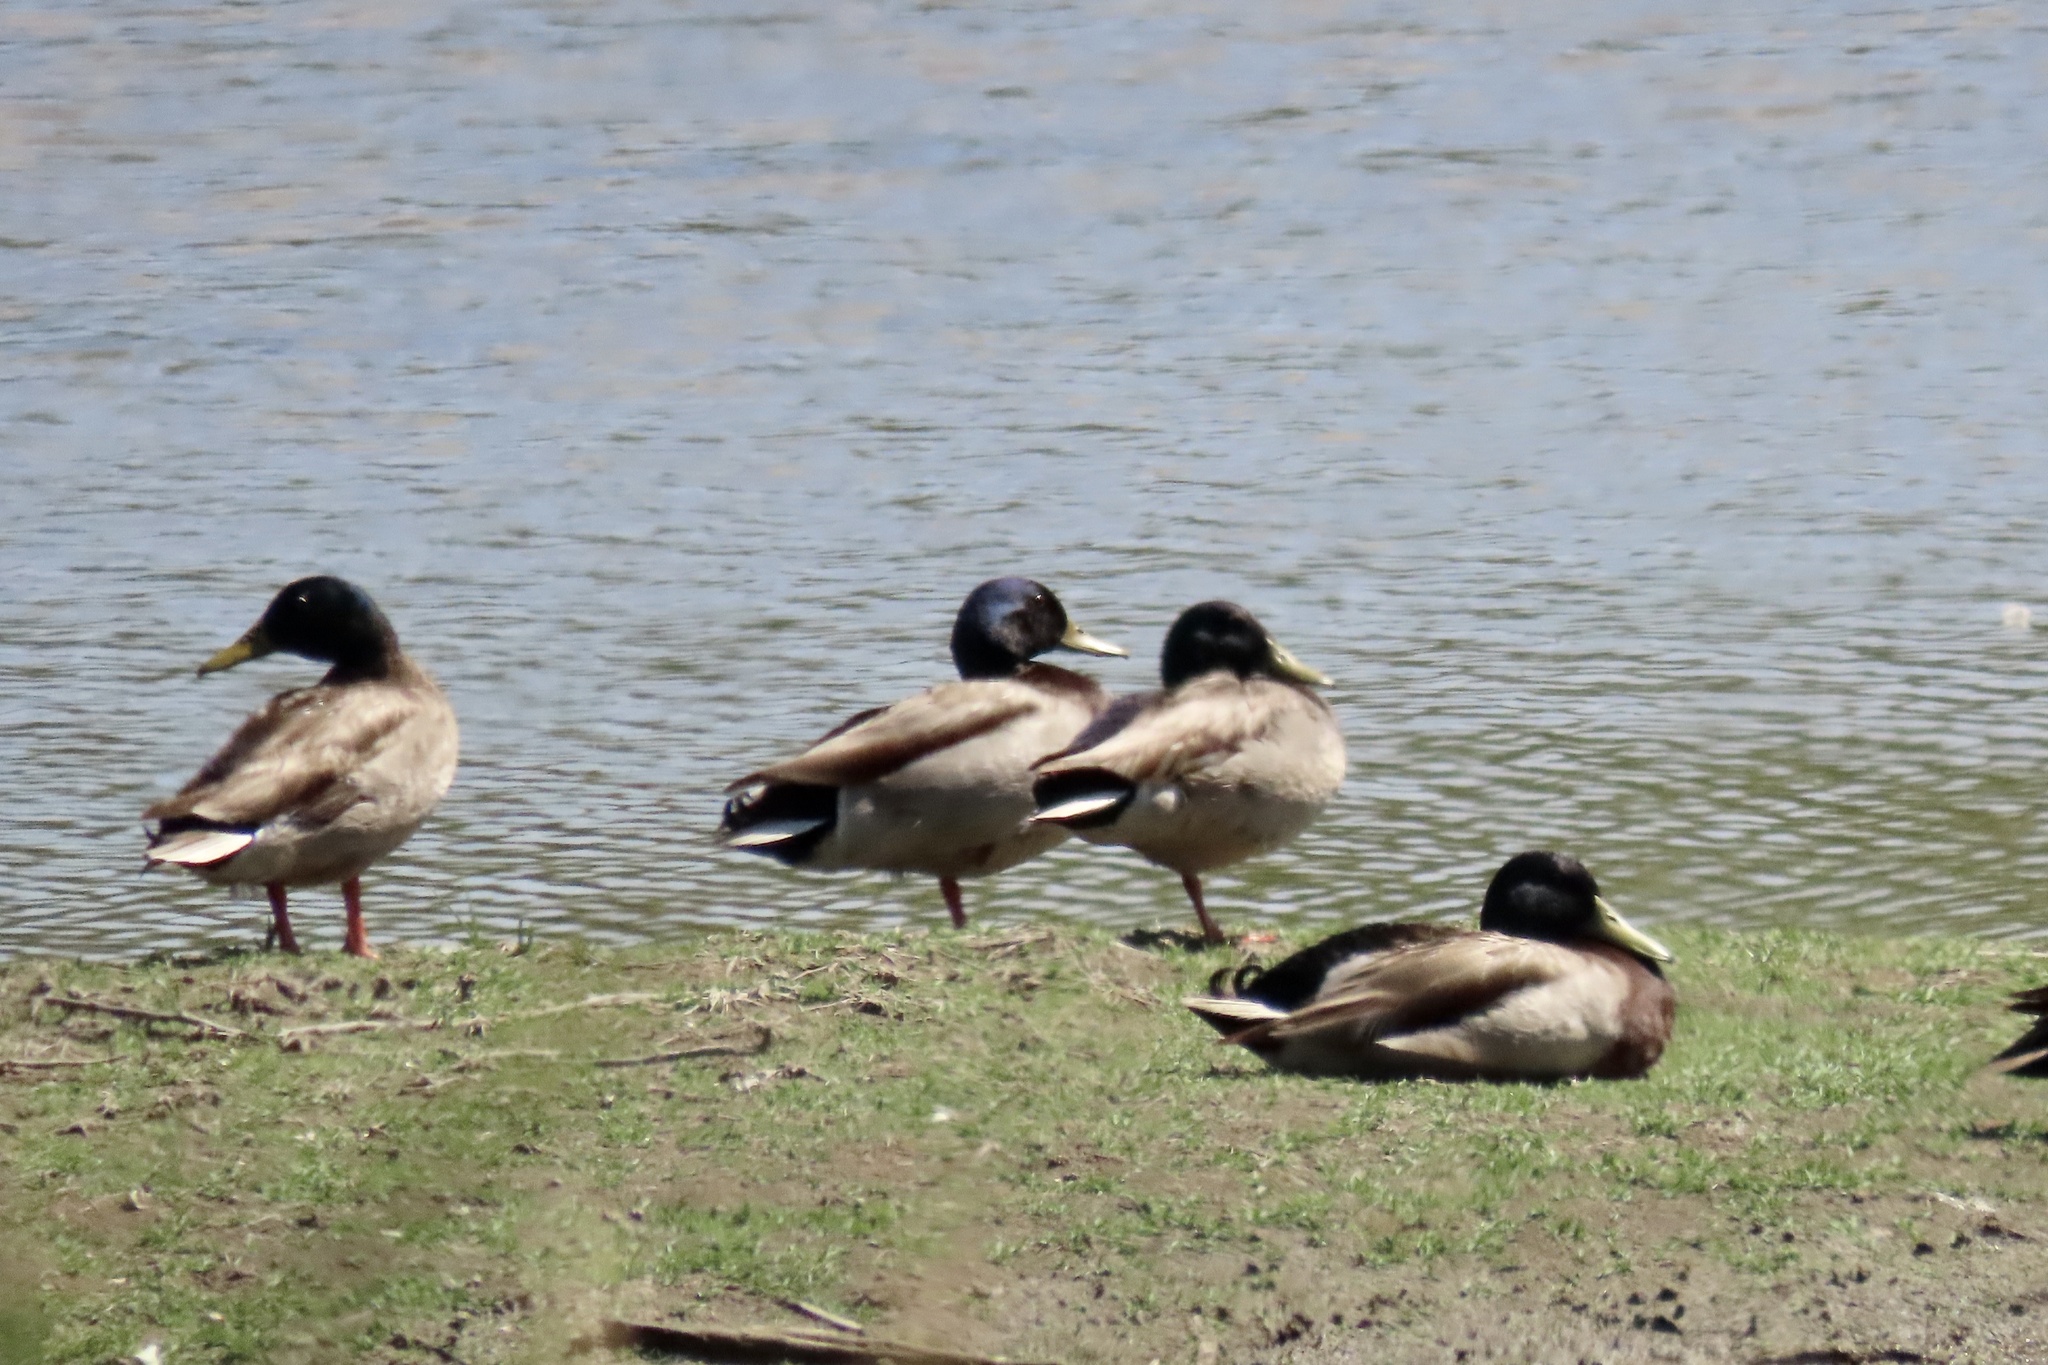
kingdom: Animalia
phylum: Chordata
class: Aves
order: Anseriformes
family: Anatidae
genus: Anas
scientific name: Anas platyrhynchos
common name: Mallard
